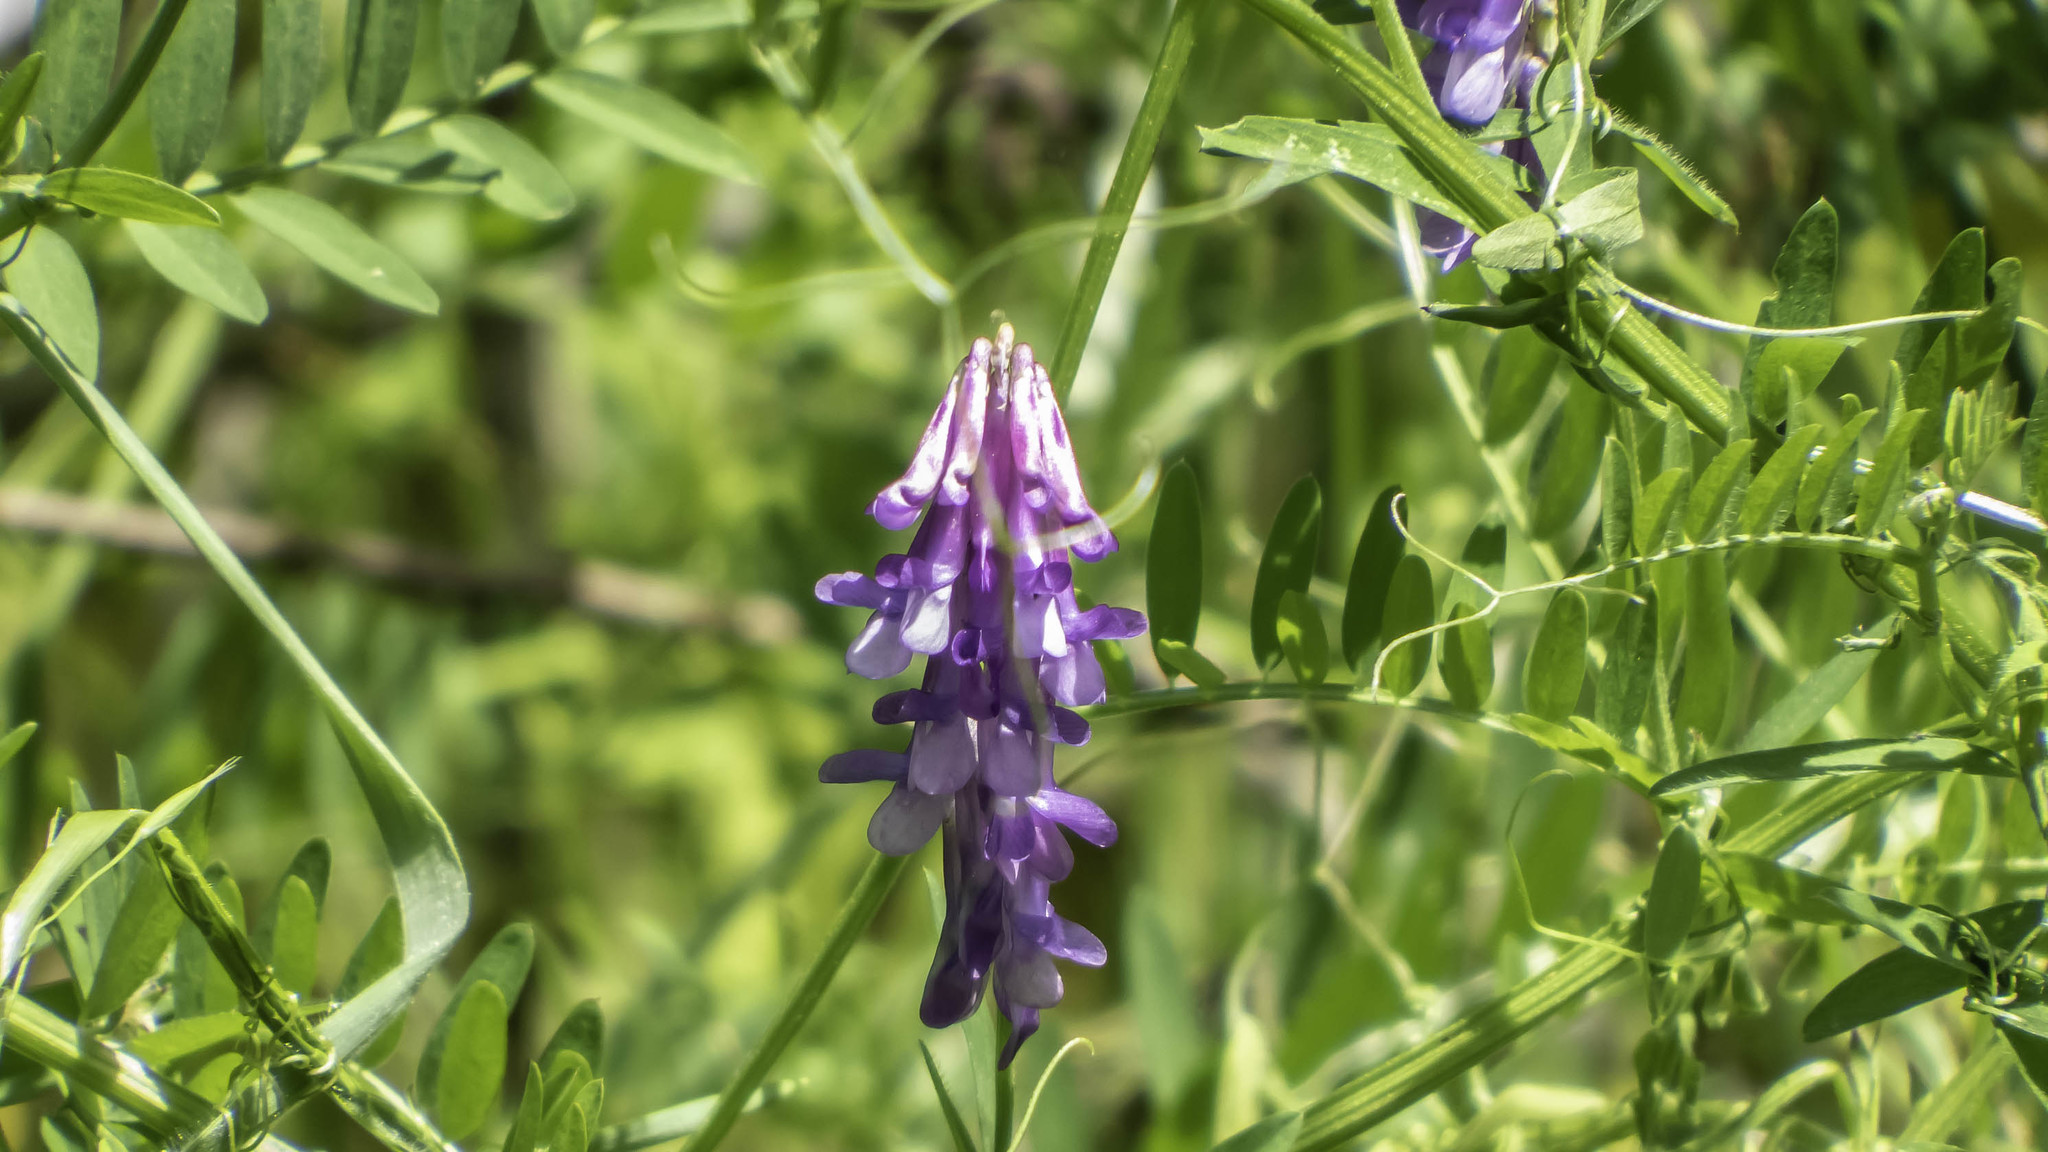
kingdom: Plantae
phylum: Tracheophyta
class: Magnoliopsida
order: Fabales
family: Fabaceae
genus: Vicia
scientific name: Vicia villosa
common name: Fodder vetch
